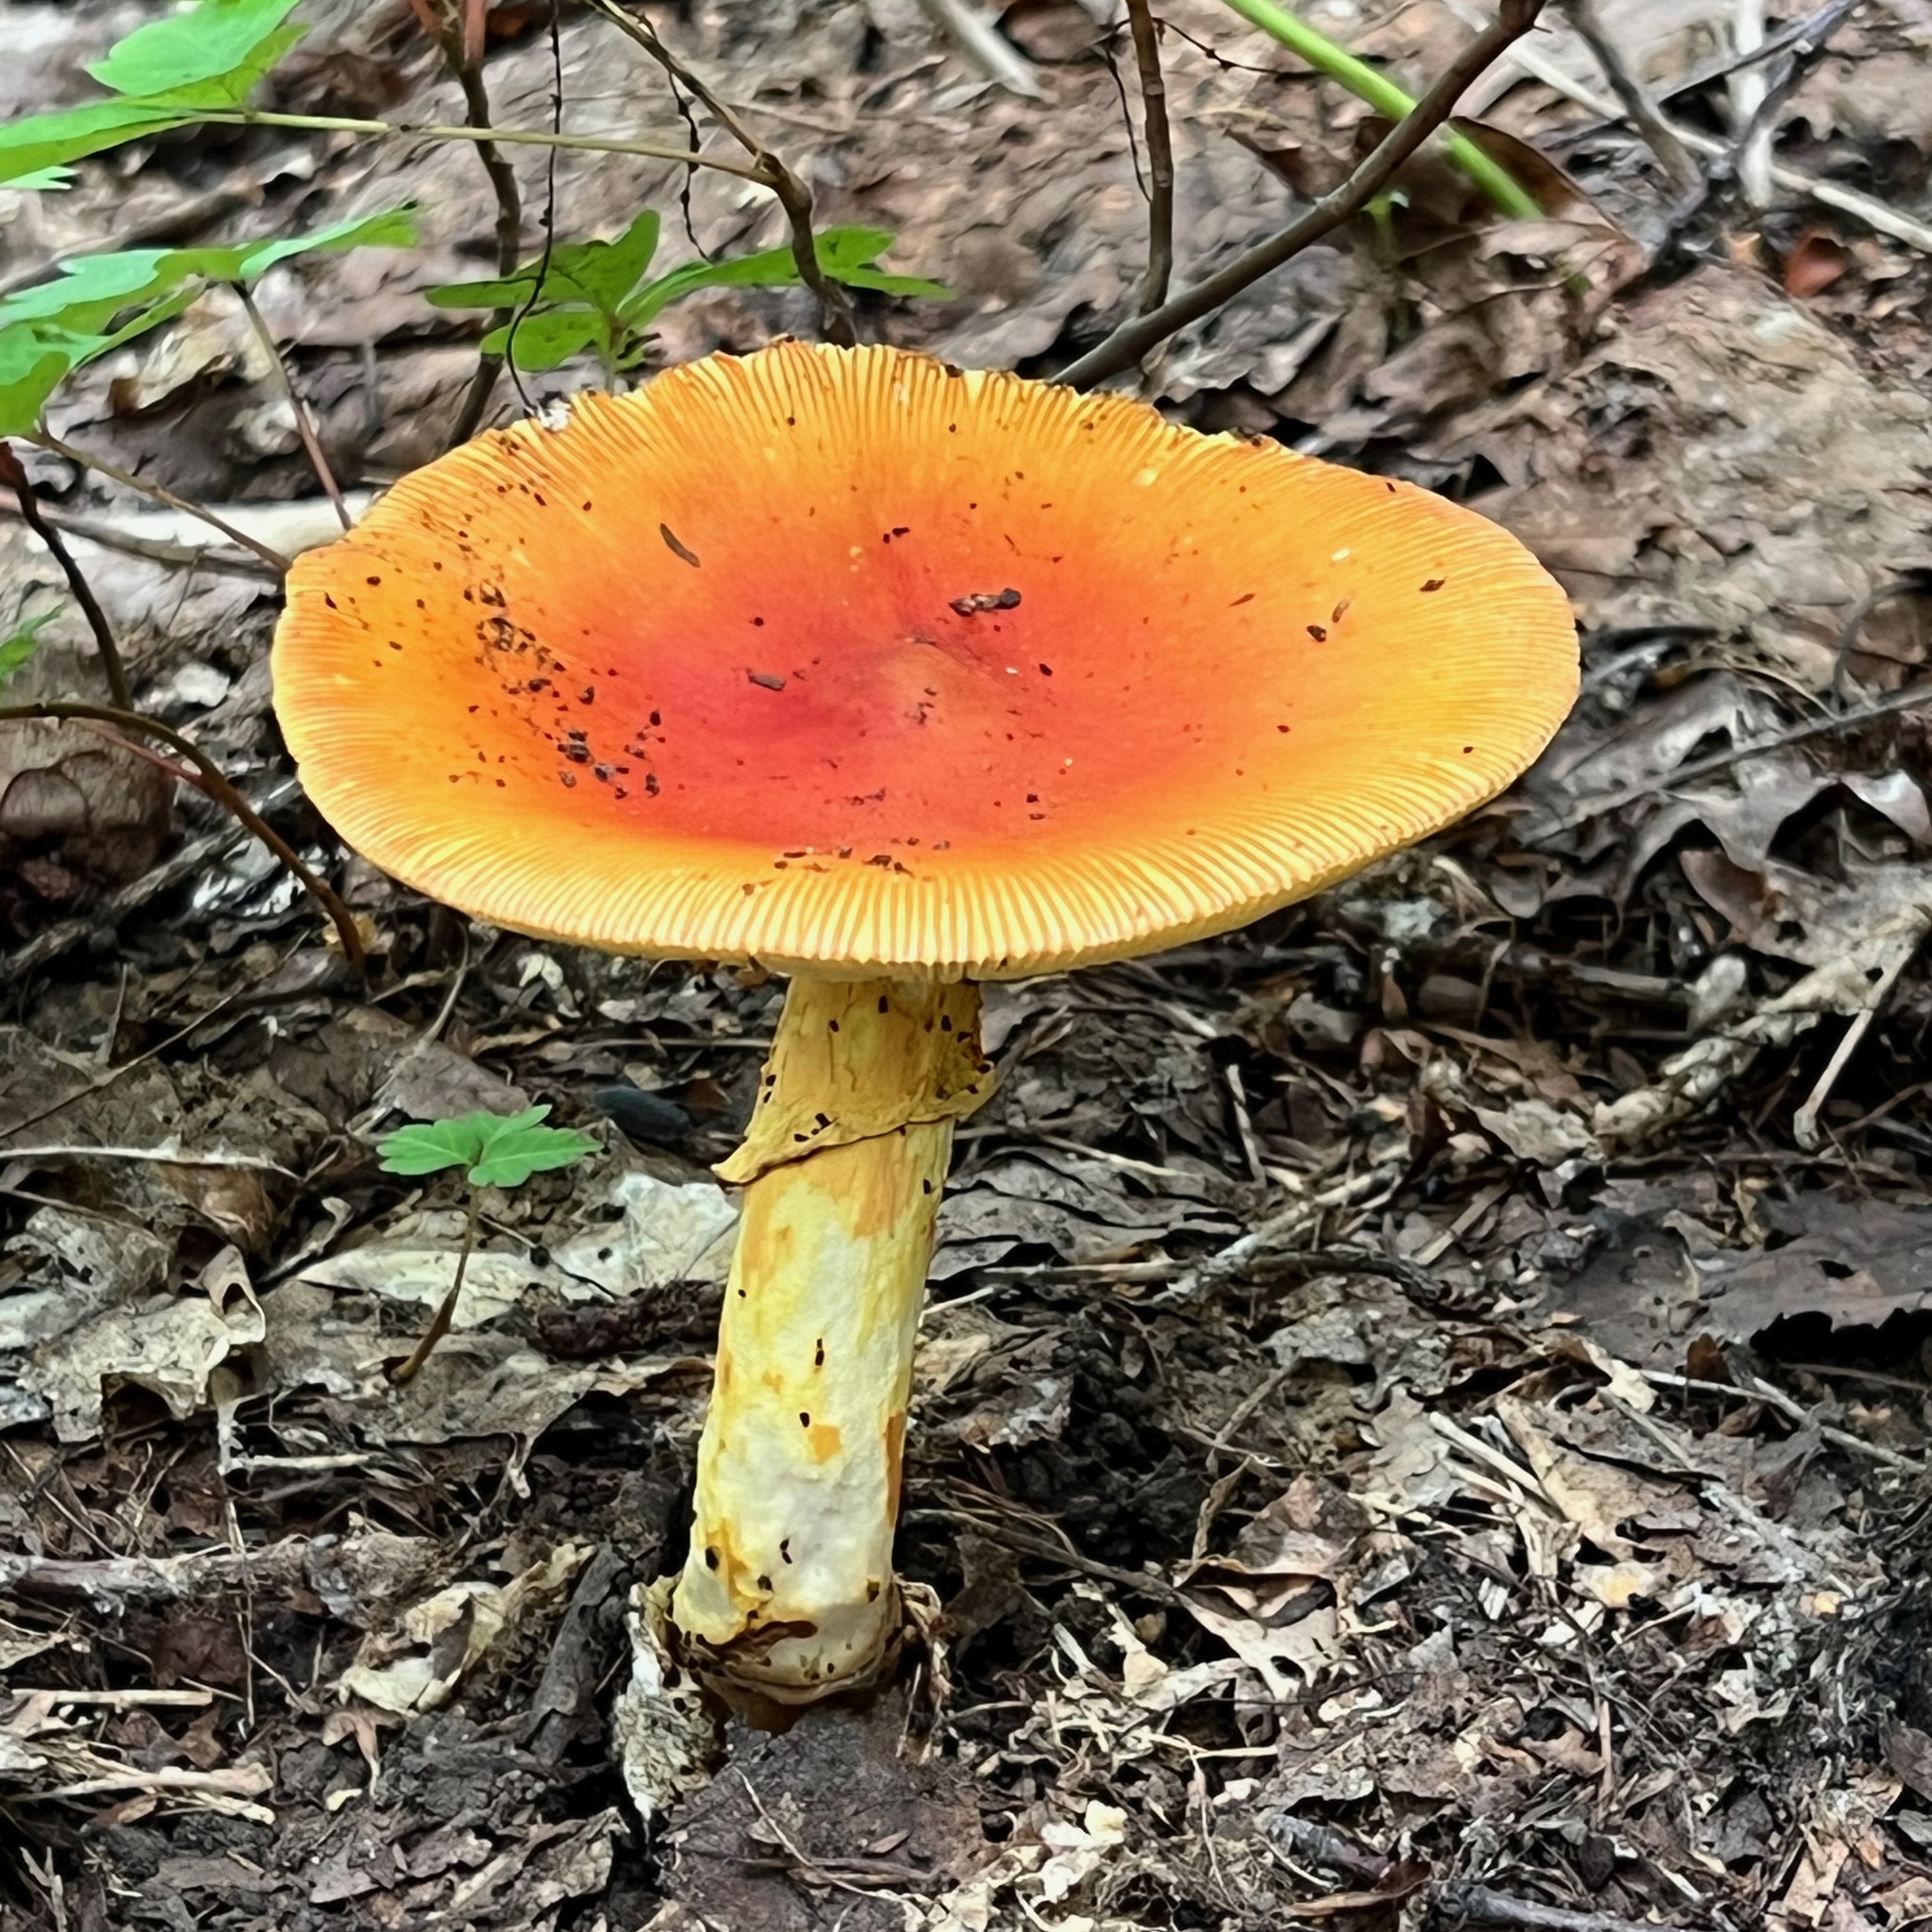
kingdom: Fungi
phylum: Basidiomycota
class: Agaricomycetes
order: Agaricales
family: Amanitaceae
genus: Amanita
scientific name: Amanita caesareoides
